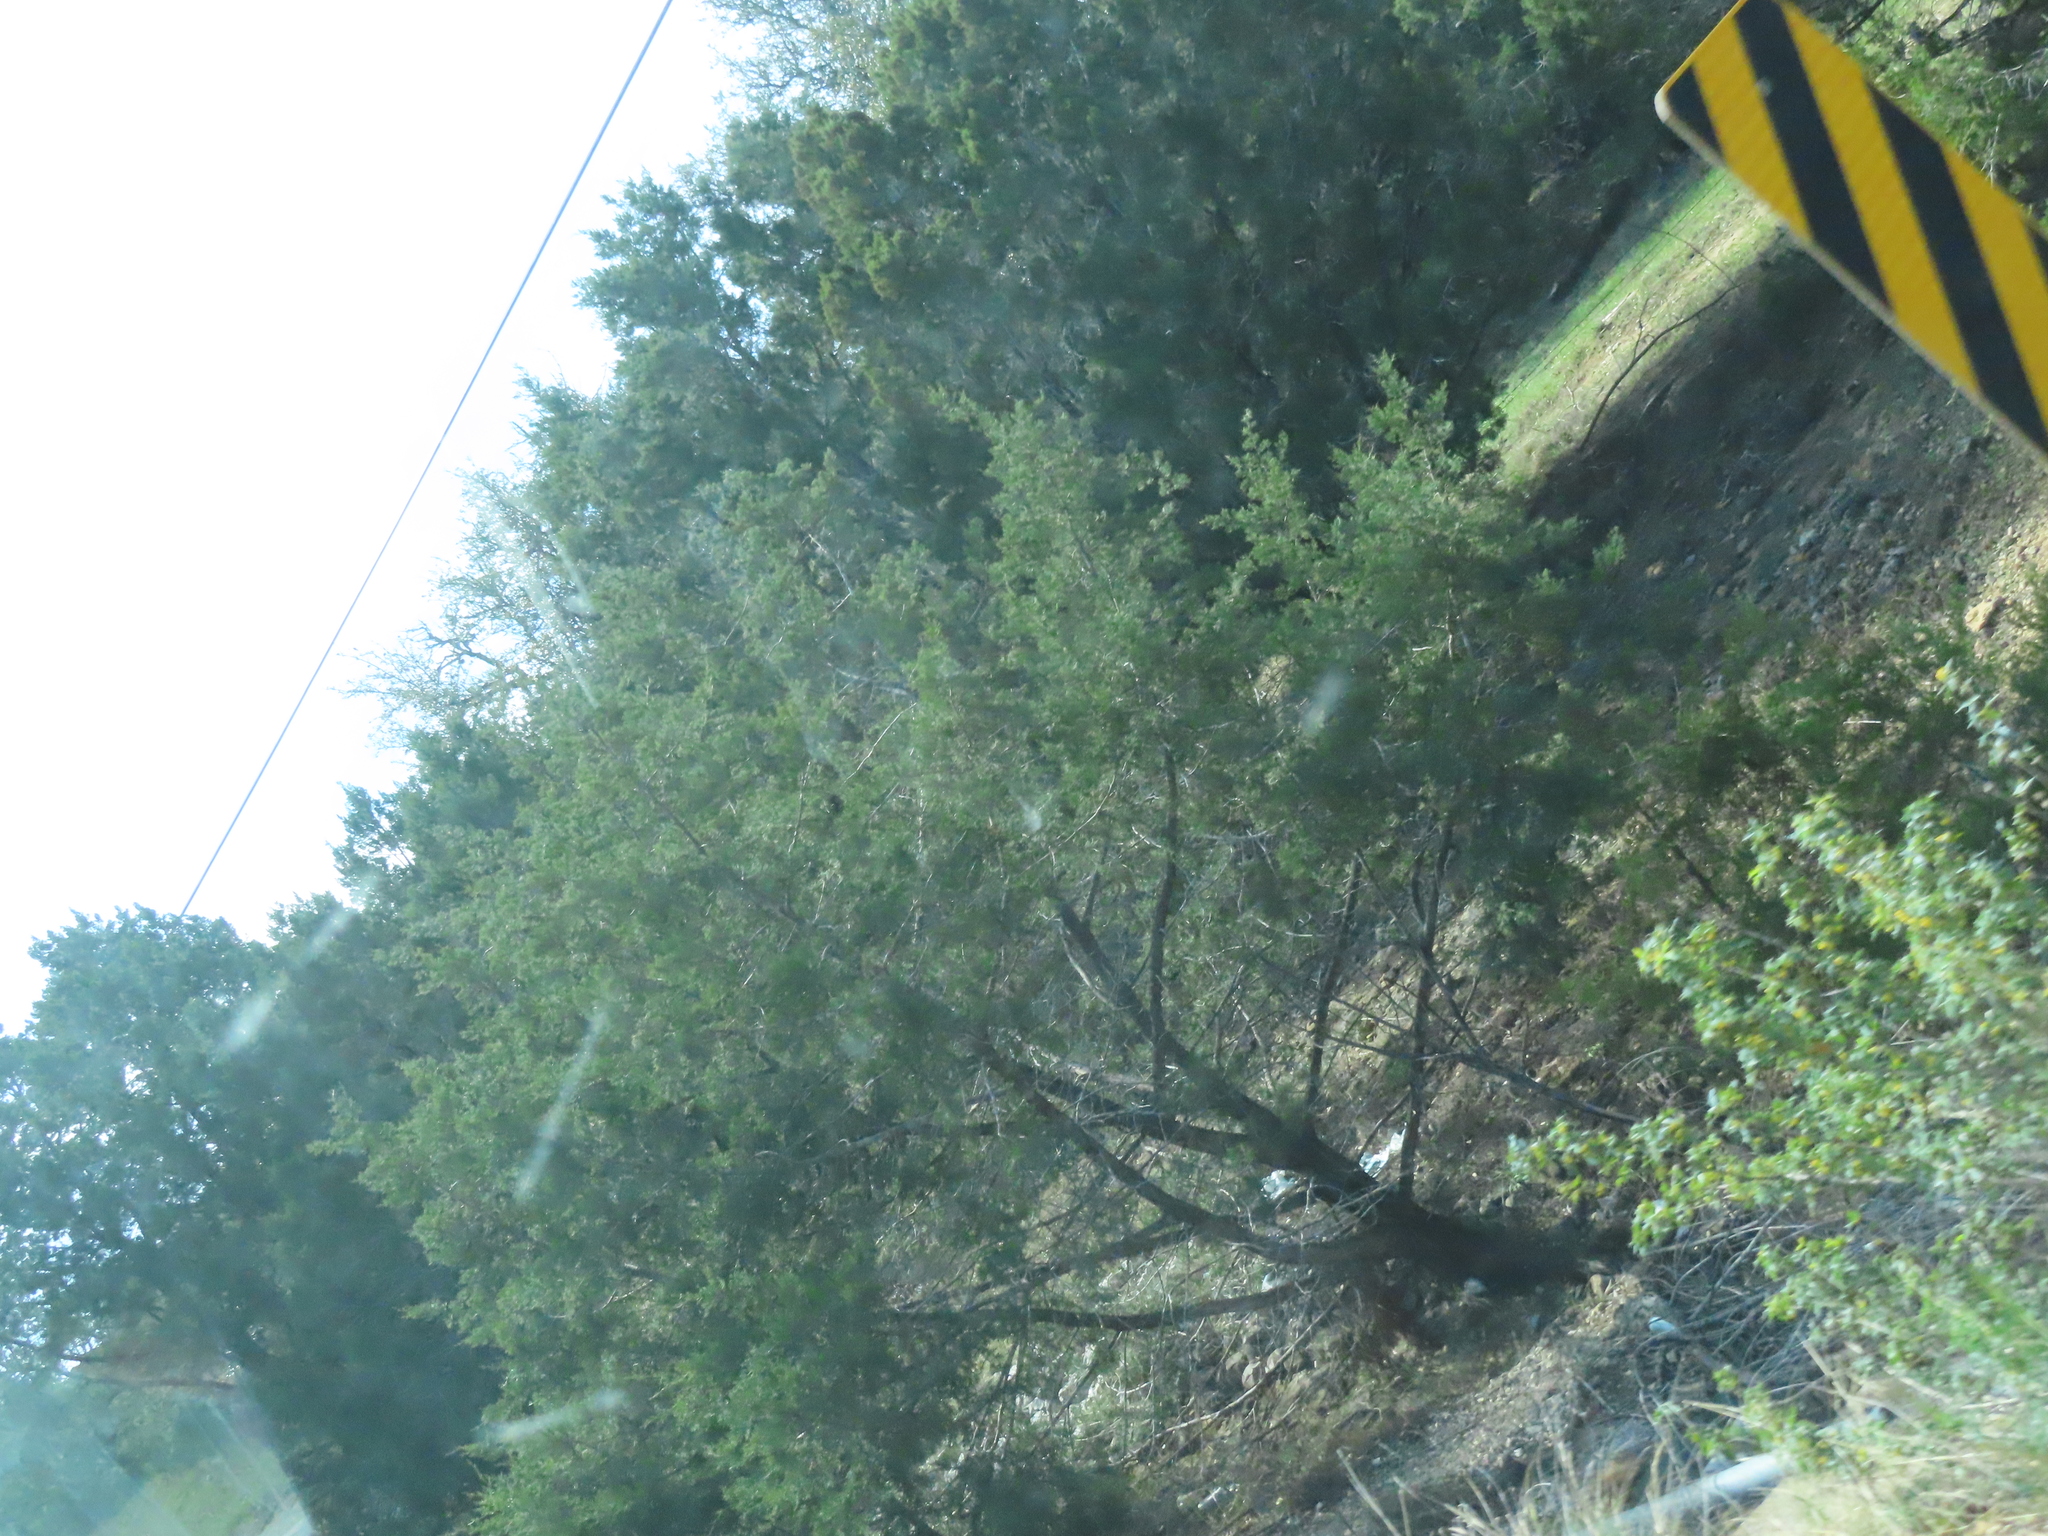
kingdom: Plantae
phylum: Tracheophyta
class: Pinopsida
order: Pinales
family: Cupressaceae
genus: Juniperus
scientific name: Juniperus ashei
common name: Mexican juniper
